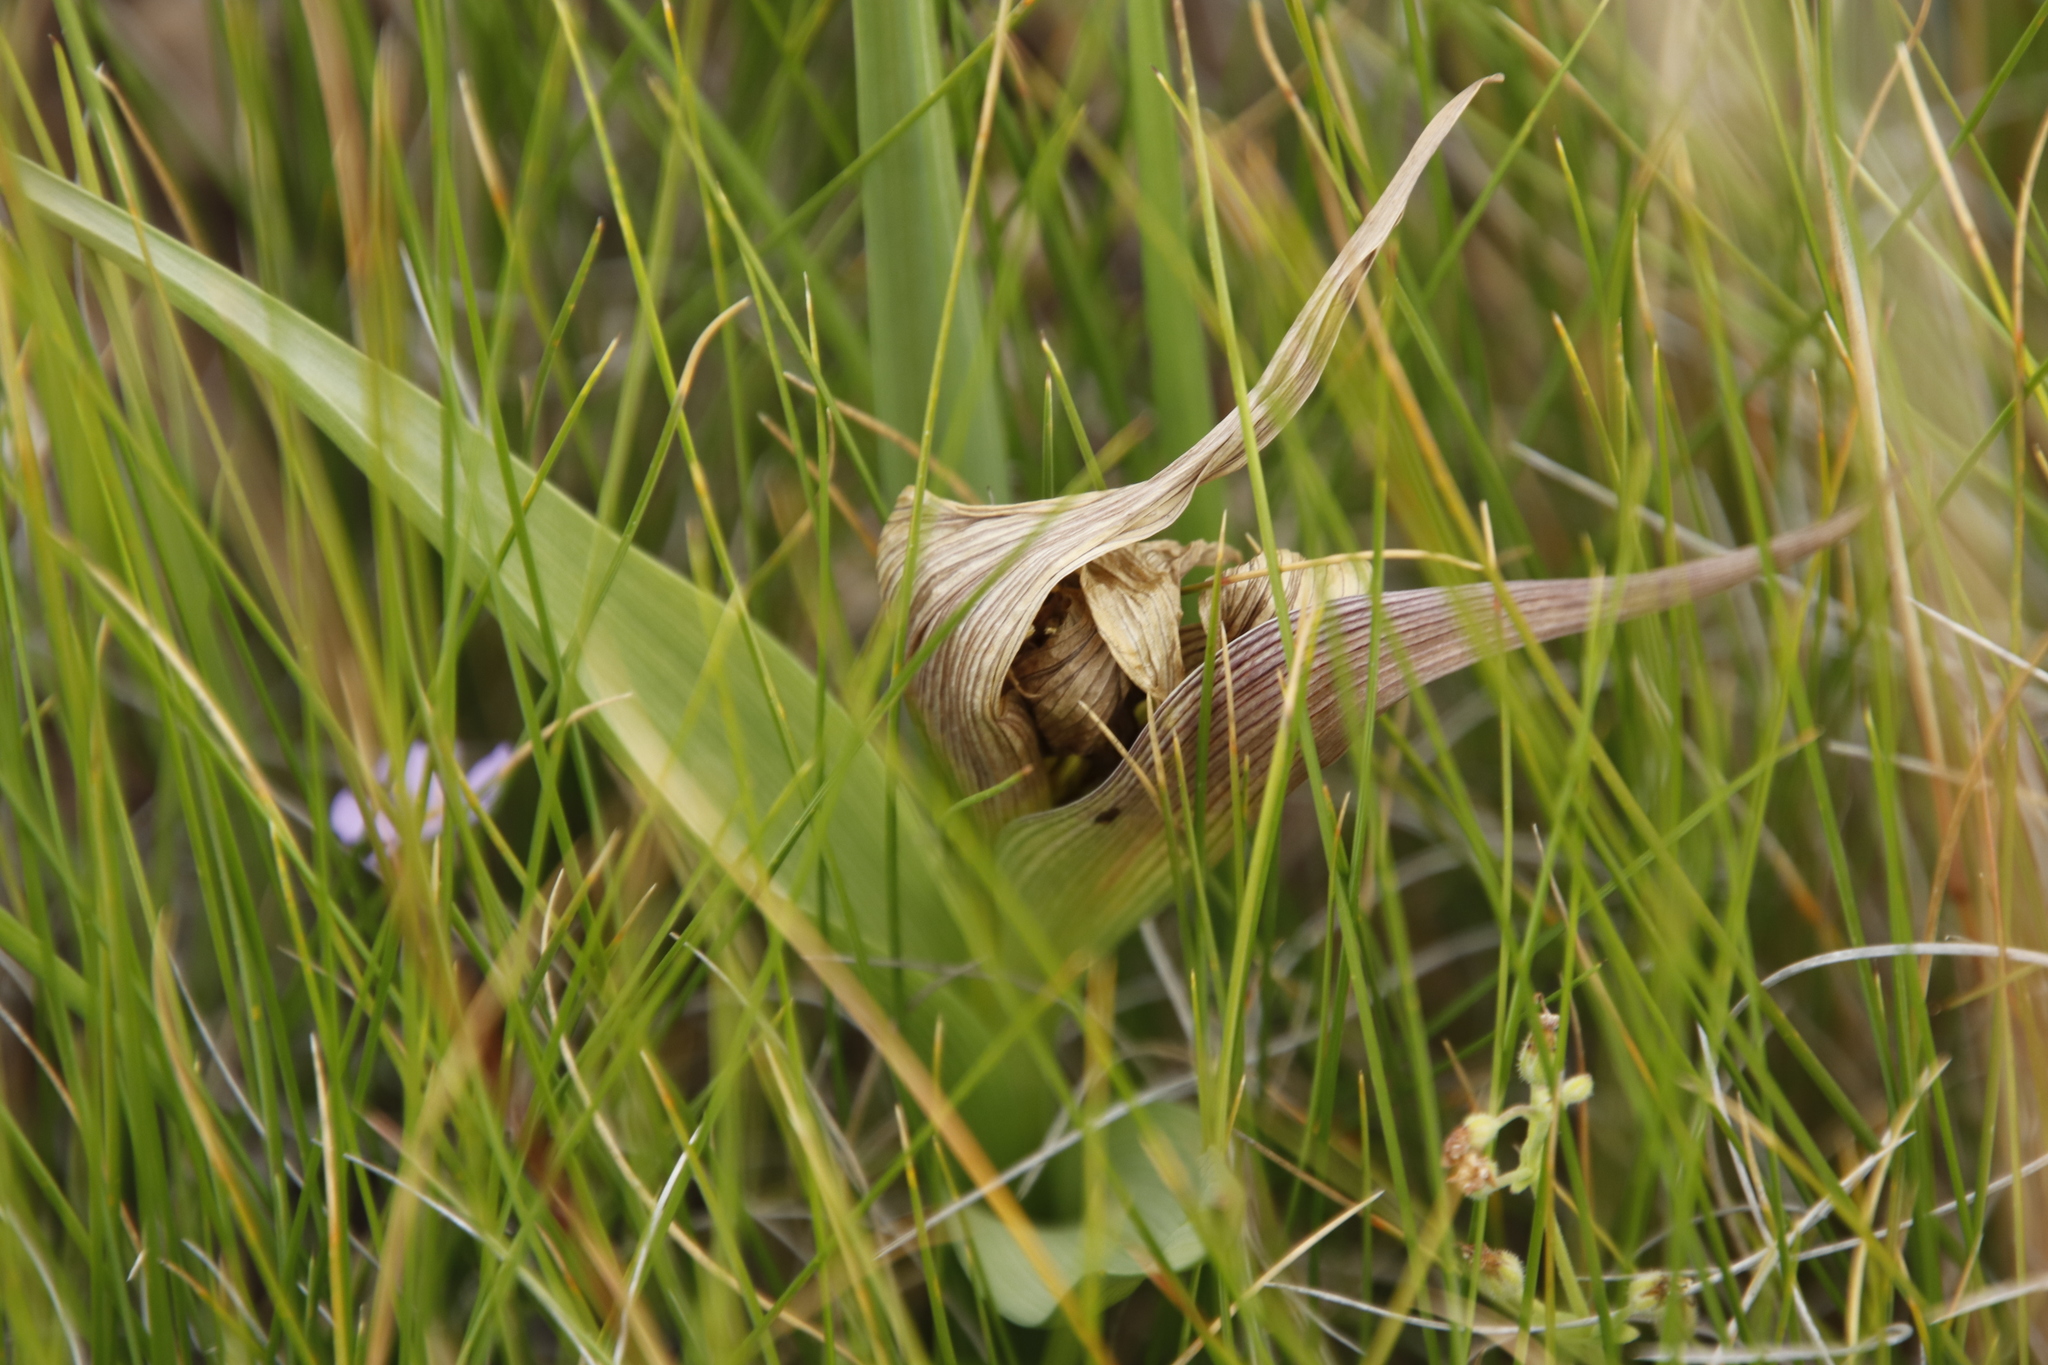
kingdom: Plantae
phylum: Tracheophyta
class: Liliopsida
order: Liliales
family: Colchicaceae
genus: Colchicum
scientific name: Colchicum striatum
